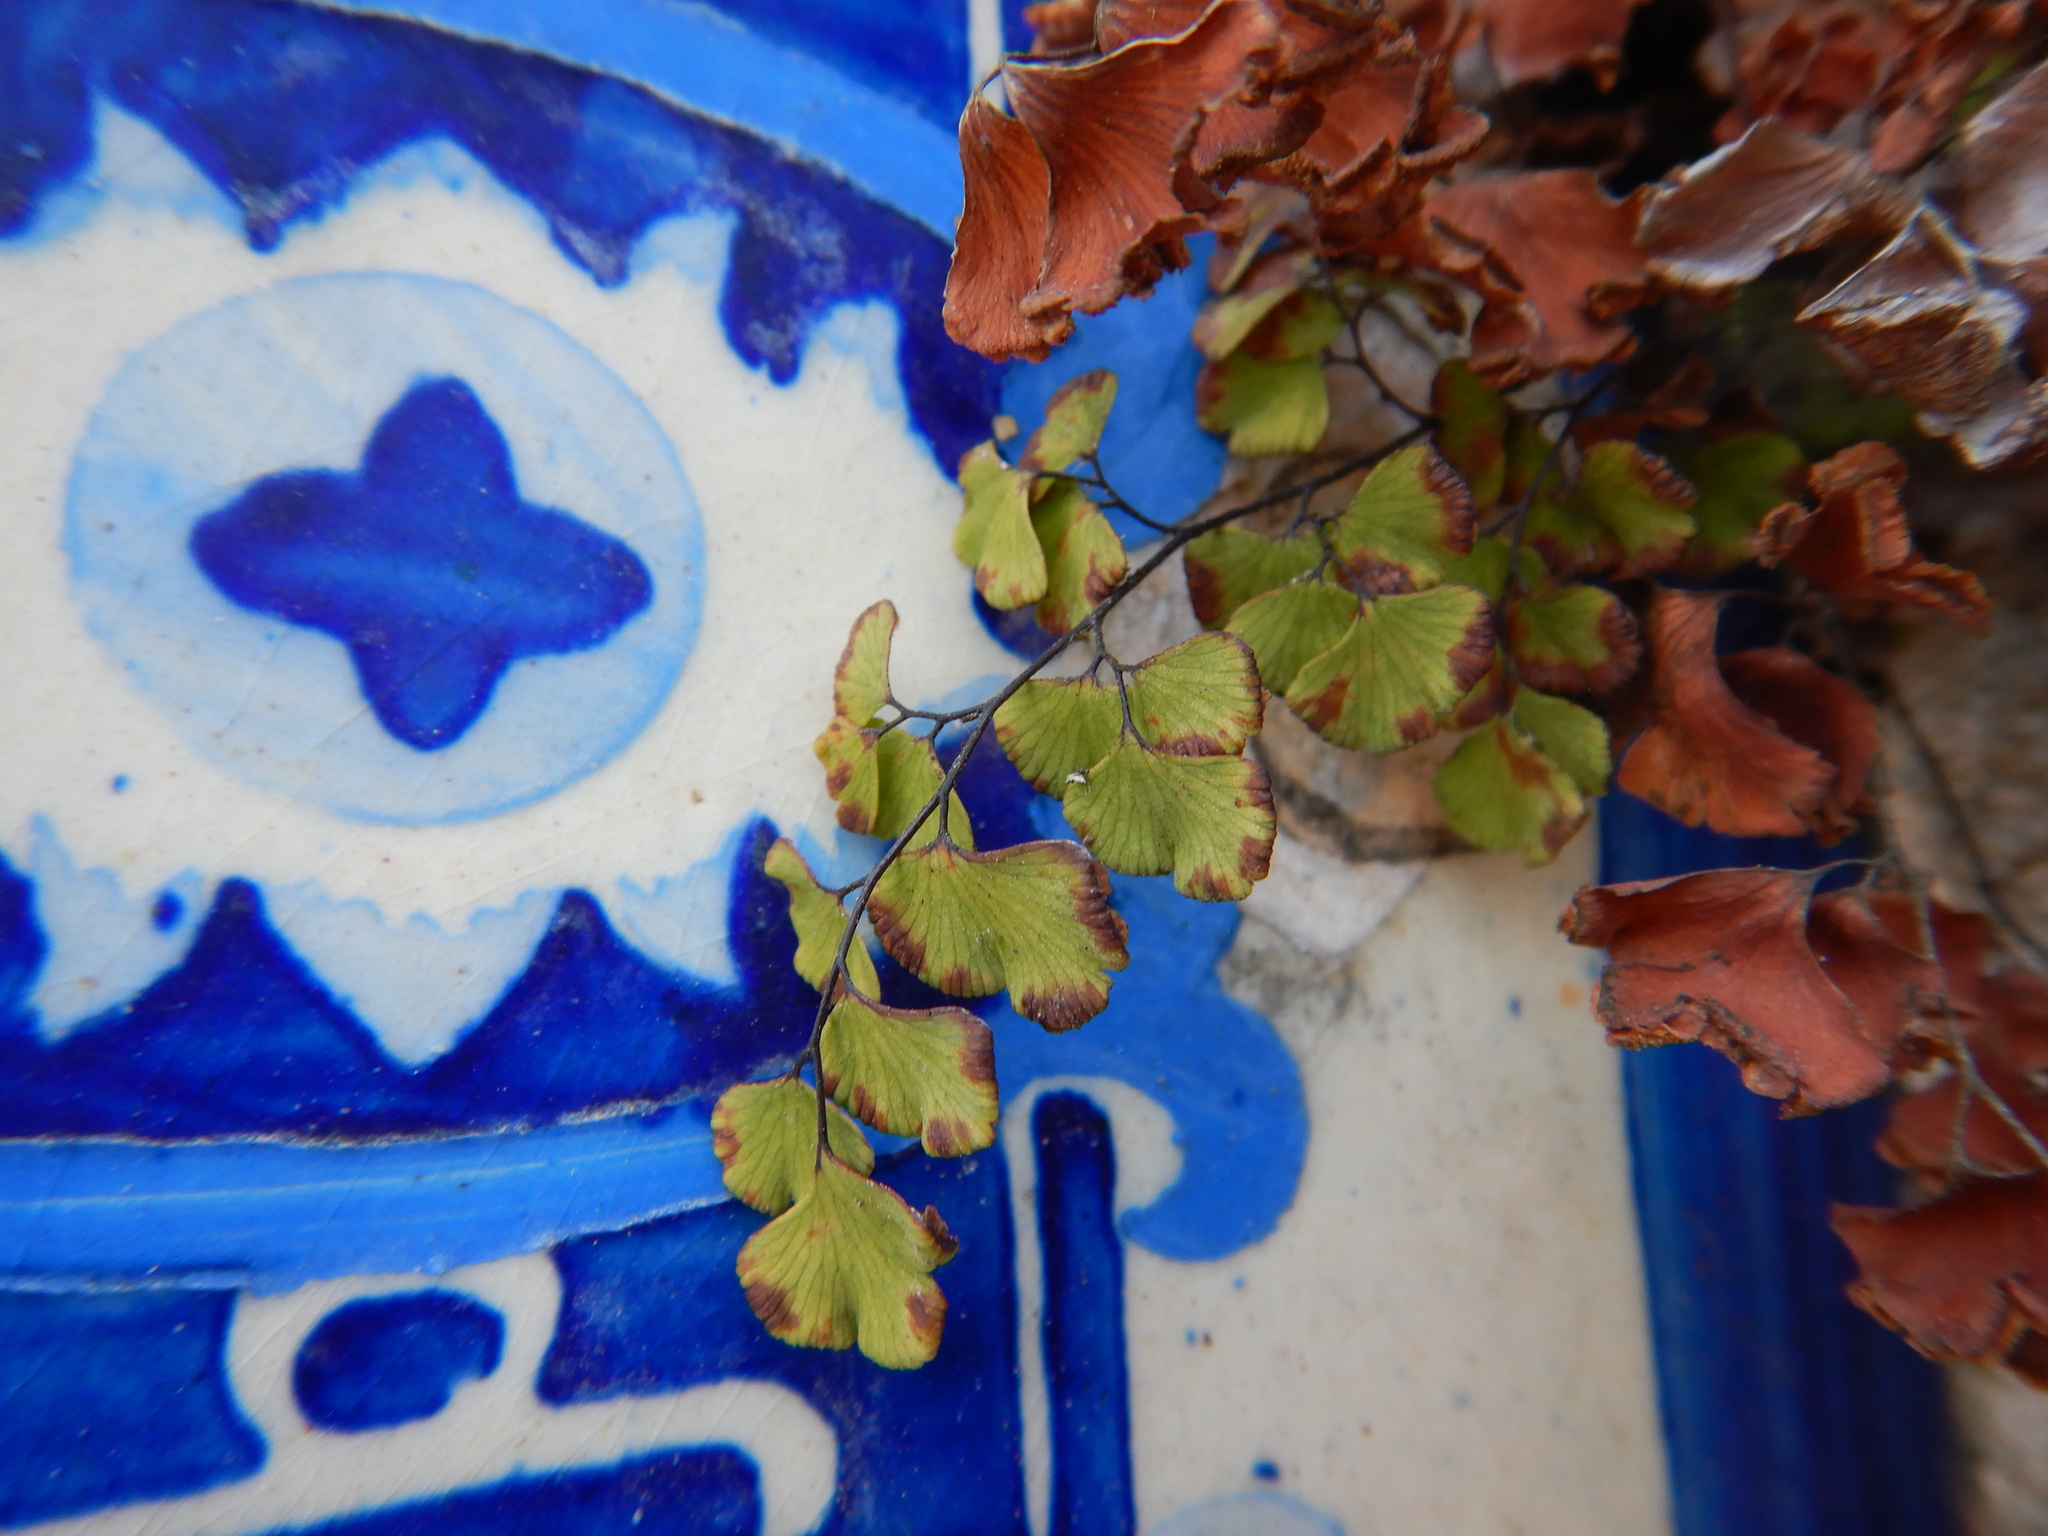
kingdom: Plantae
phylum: Tracheophyta
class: Polypodiopsida
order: Polypodiales
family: Pteridaceae
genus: Adiantum
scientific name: Adiantum capillus-veneris
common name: Maidenhair fern
